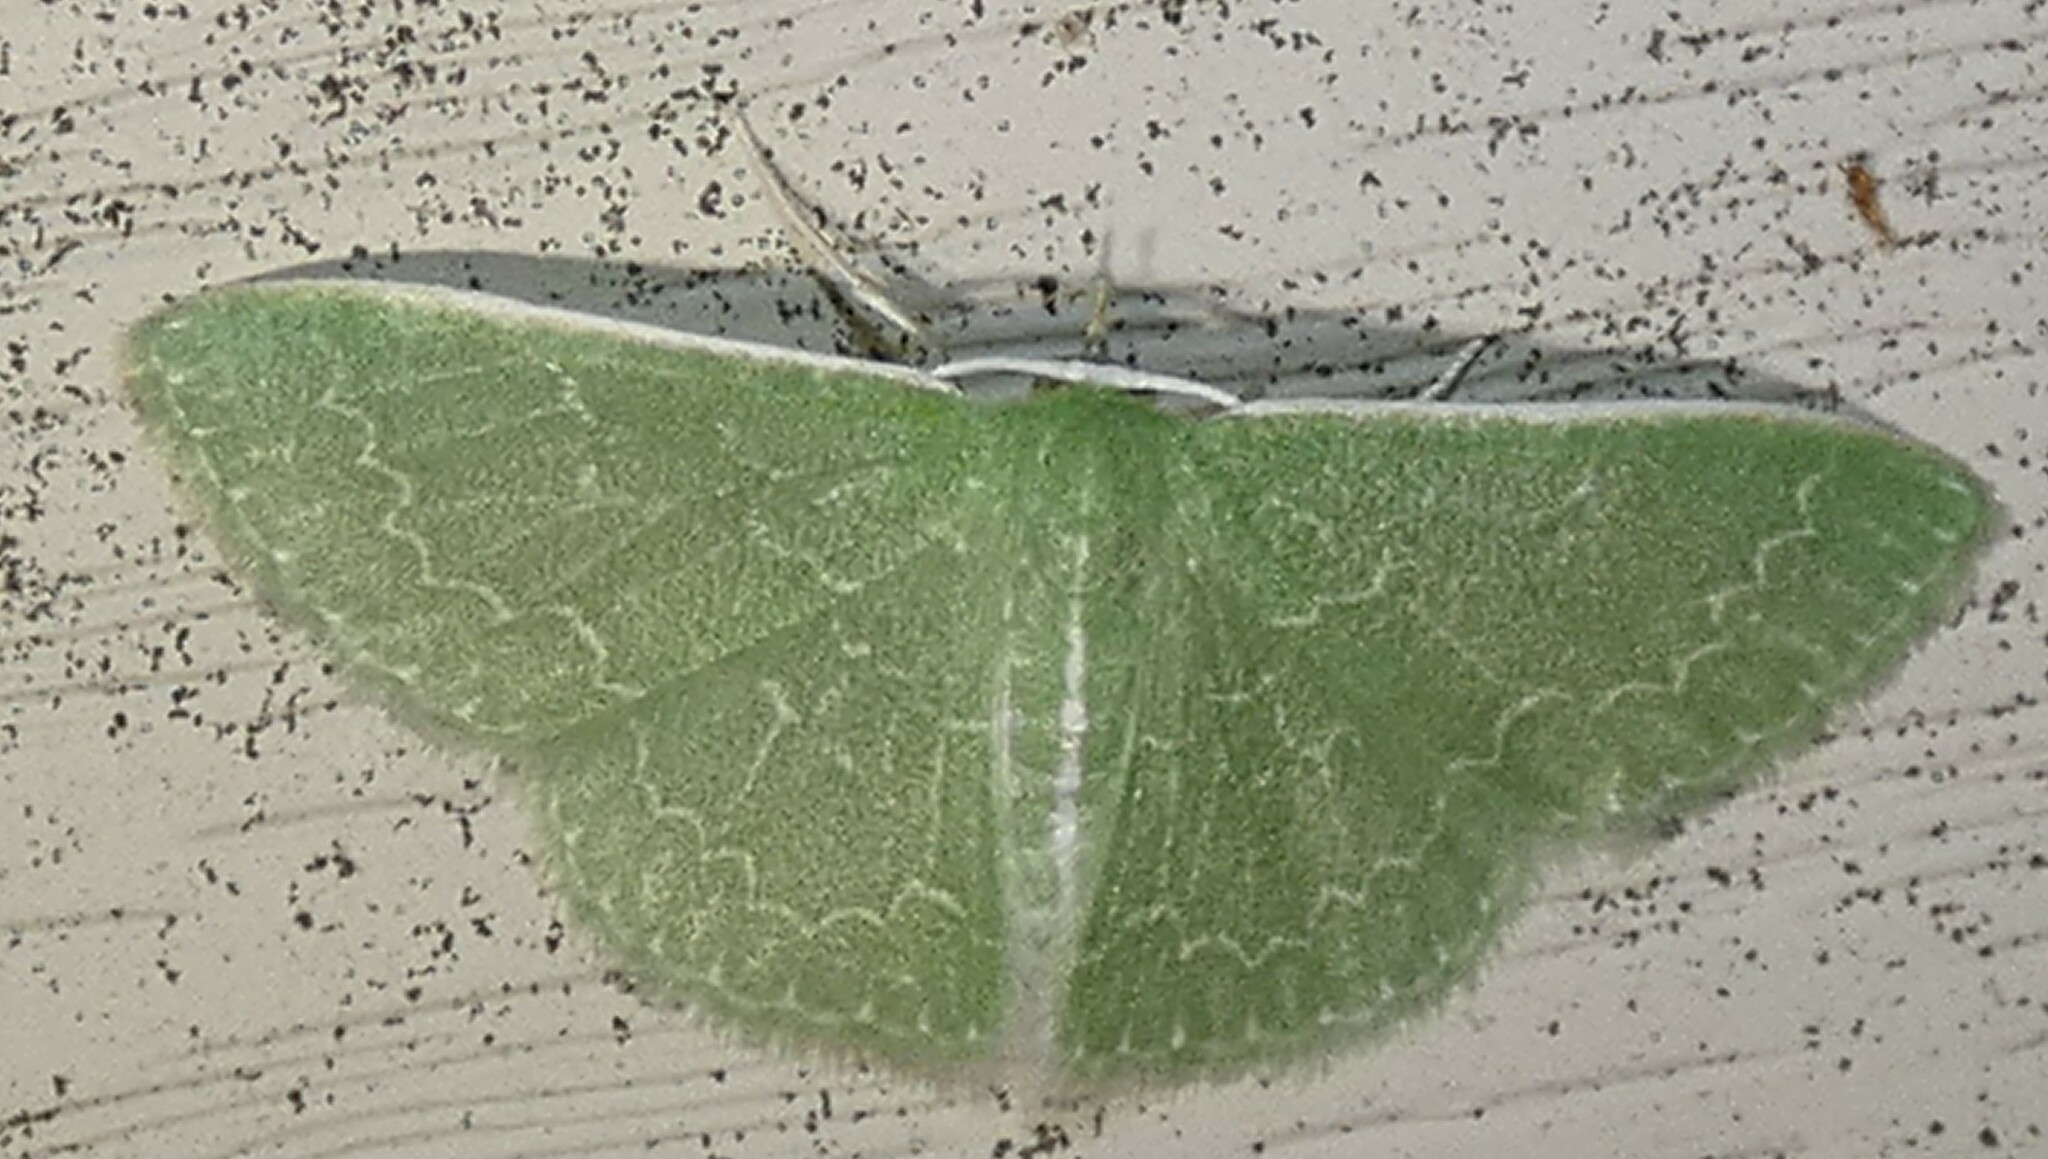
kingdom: Animalia
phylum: Arthropoda
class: Insecta
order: Lepidoptera
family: Geometridae
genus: Synchlora
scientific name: Synchlora frondaria
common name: Southern emerald
